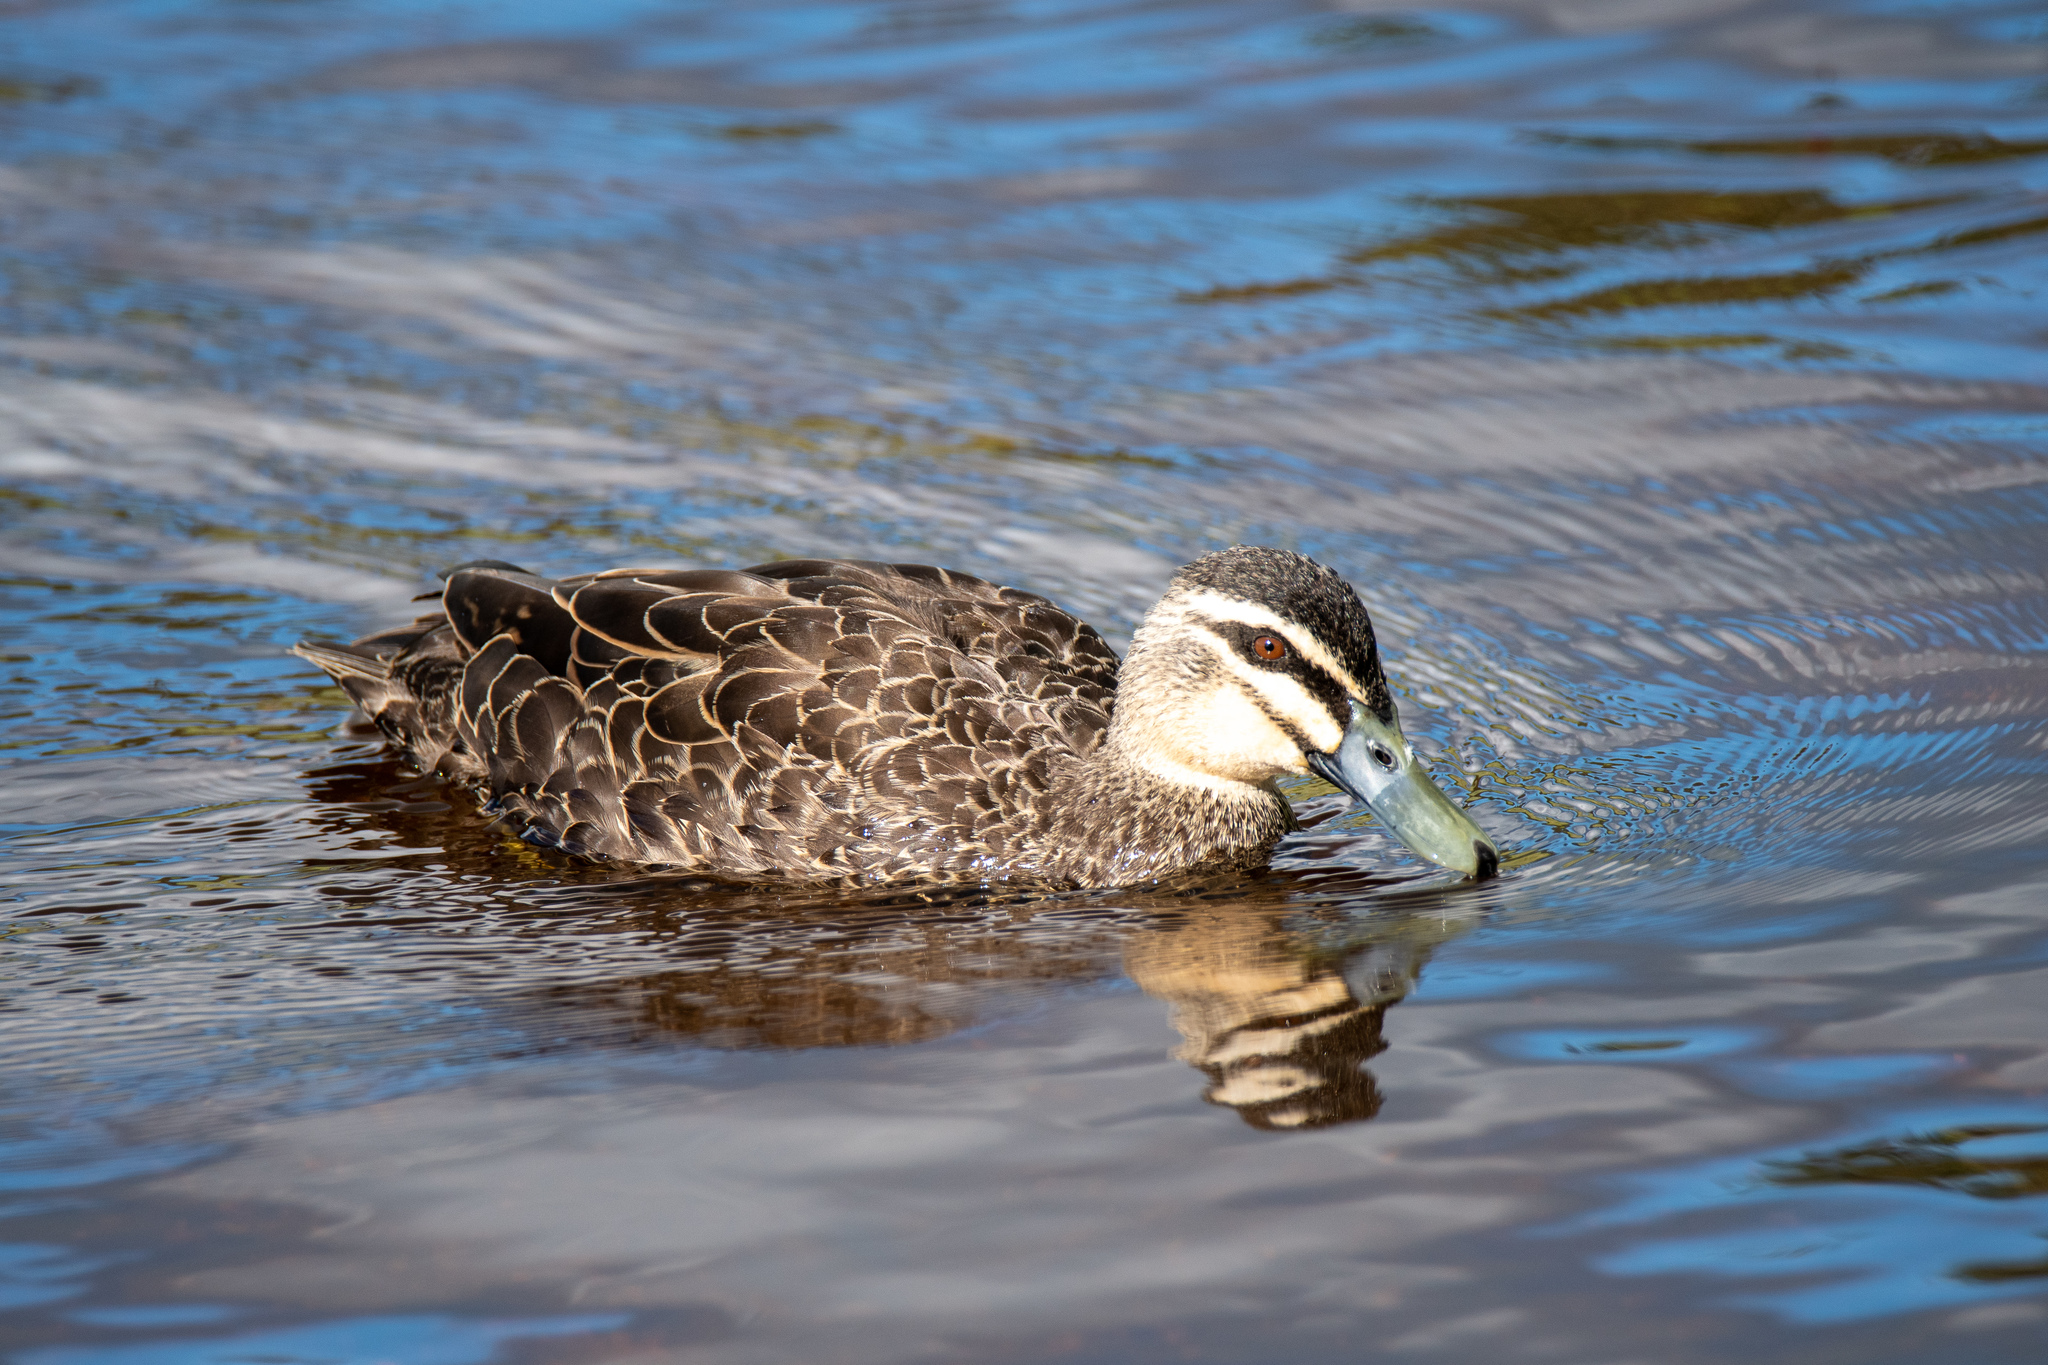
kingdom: Animalia
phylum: Chordata
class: Aves
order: Anseriformes
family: Anatidae
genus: Anas
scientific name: Anas
